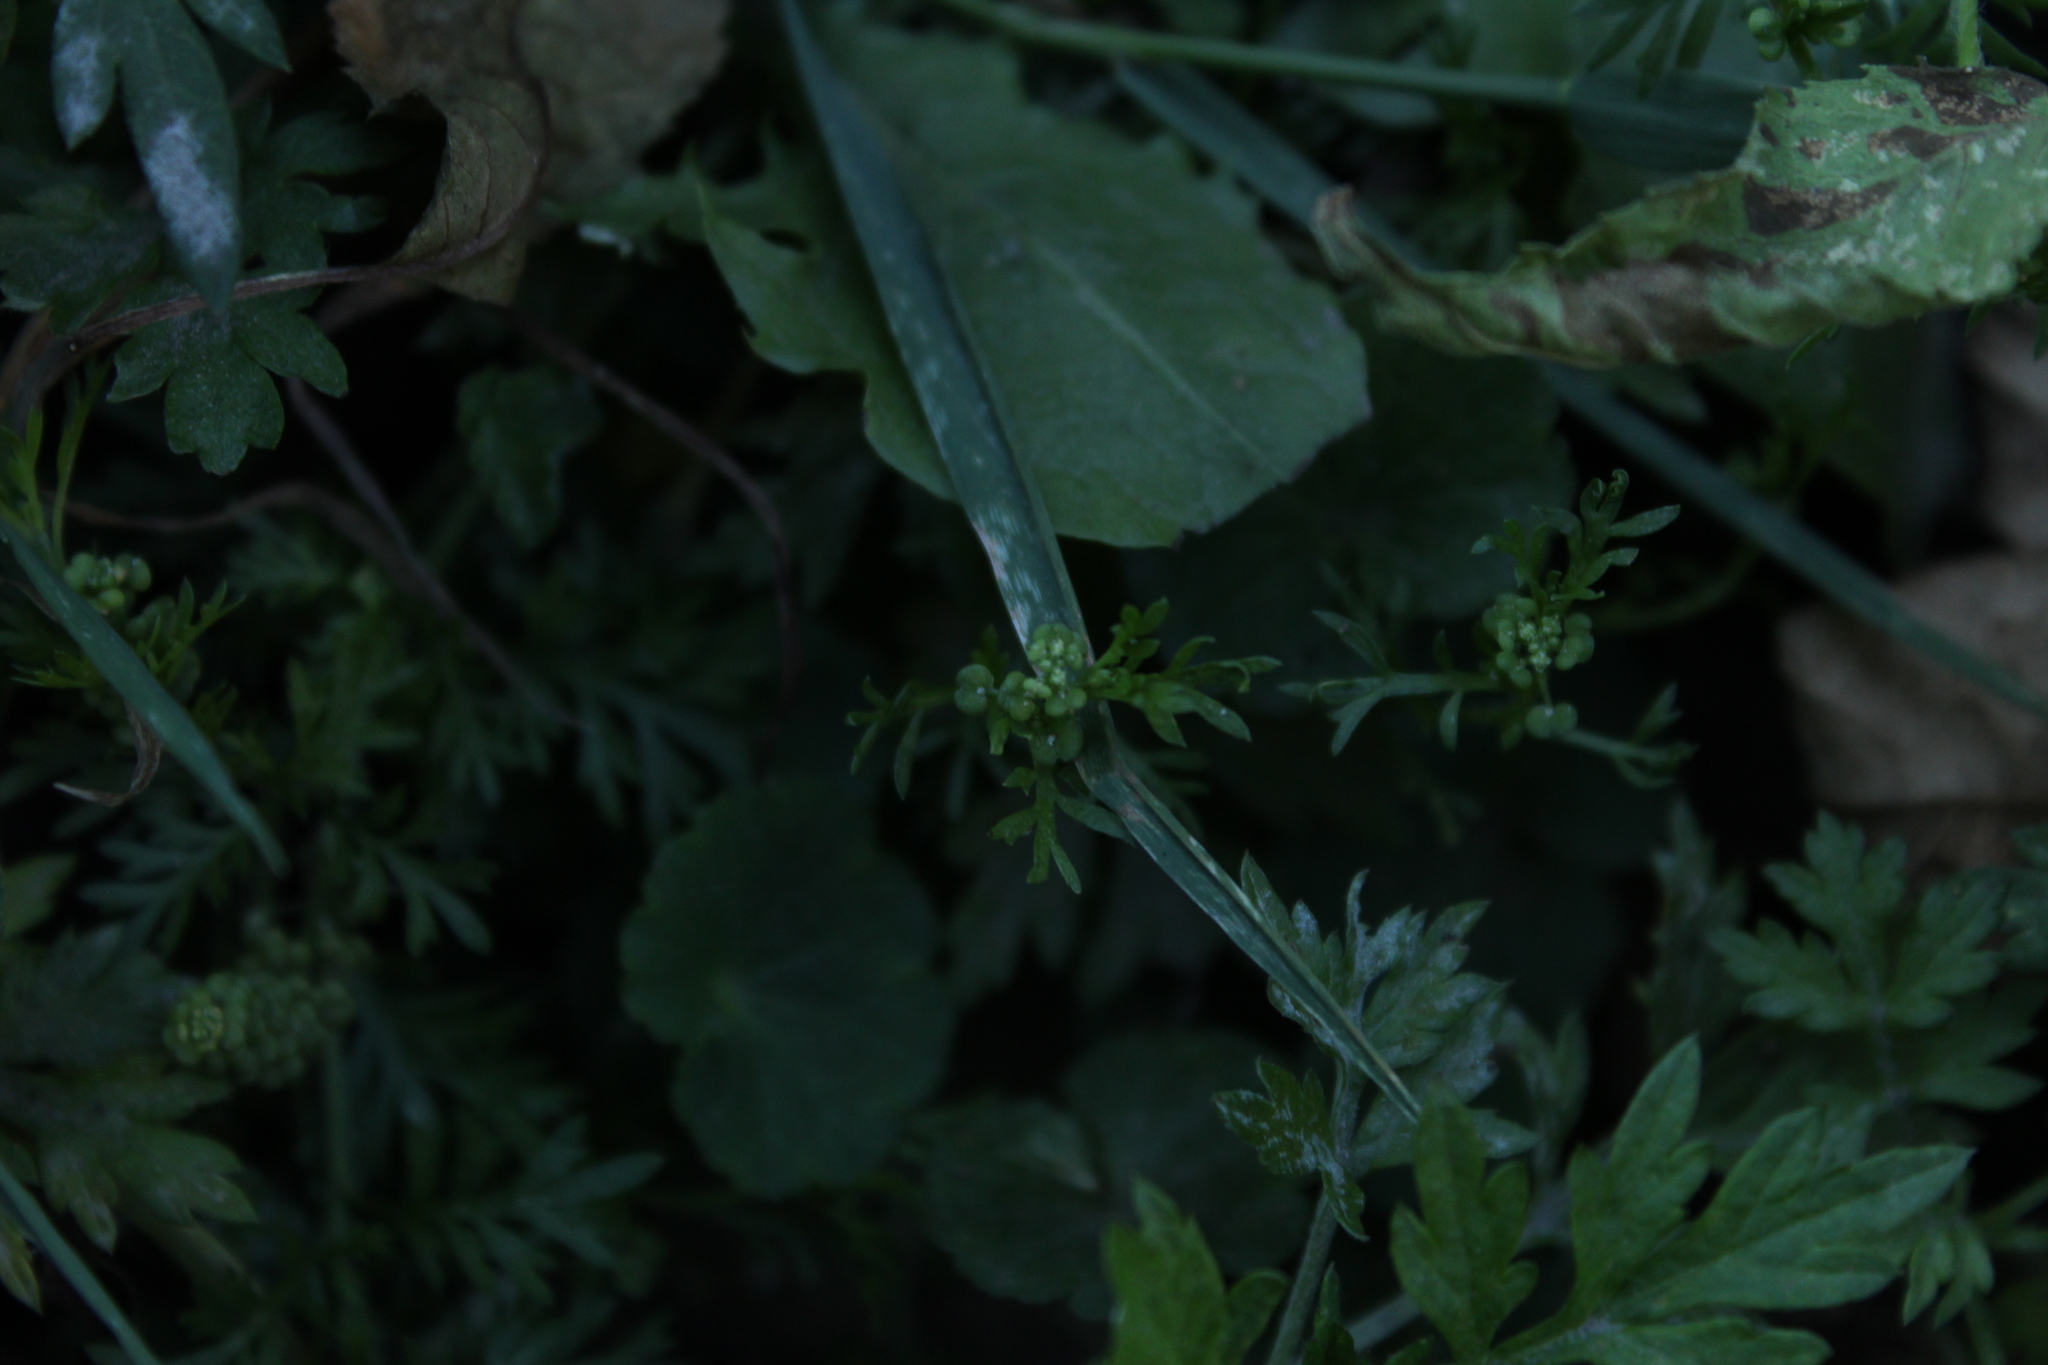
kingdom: Plantae
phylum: Tracheophyta
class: Magnoliopsida
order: Brassicales
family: Brassicaceae
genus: Lepidium
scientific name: Lepidium bipinnatifidum
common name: Wayside pepperwort
